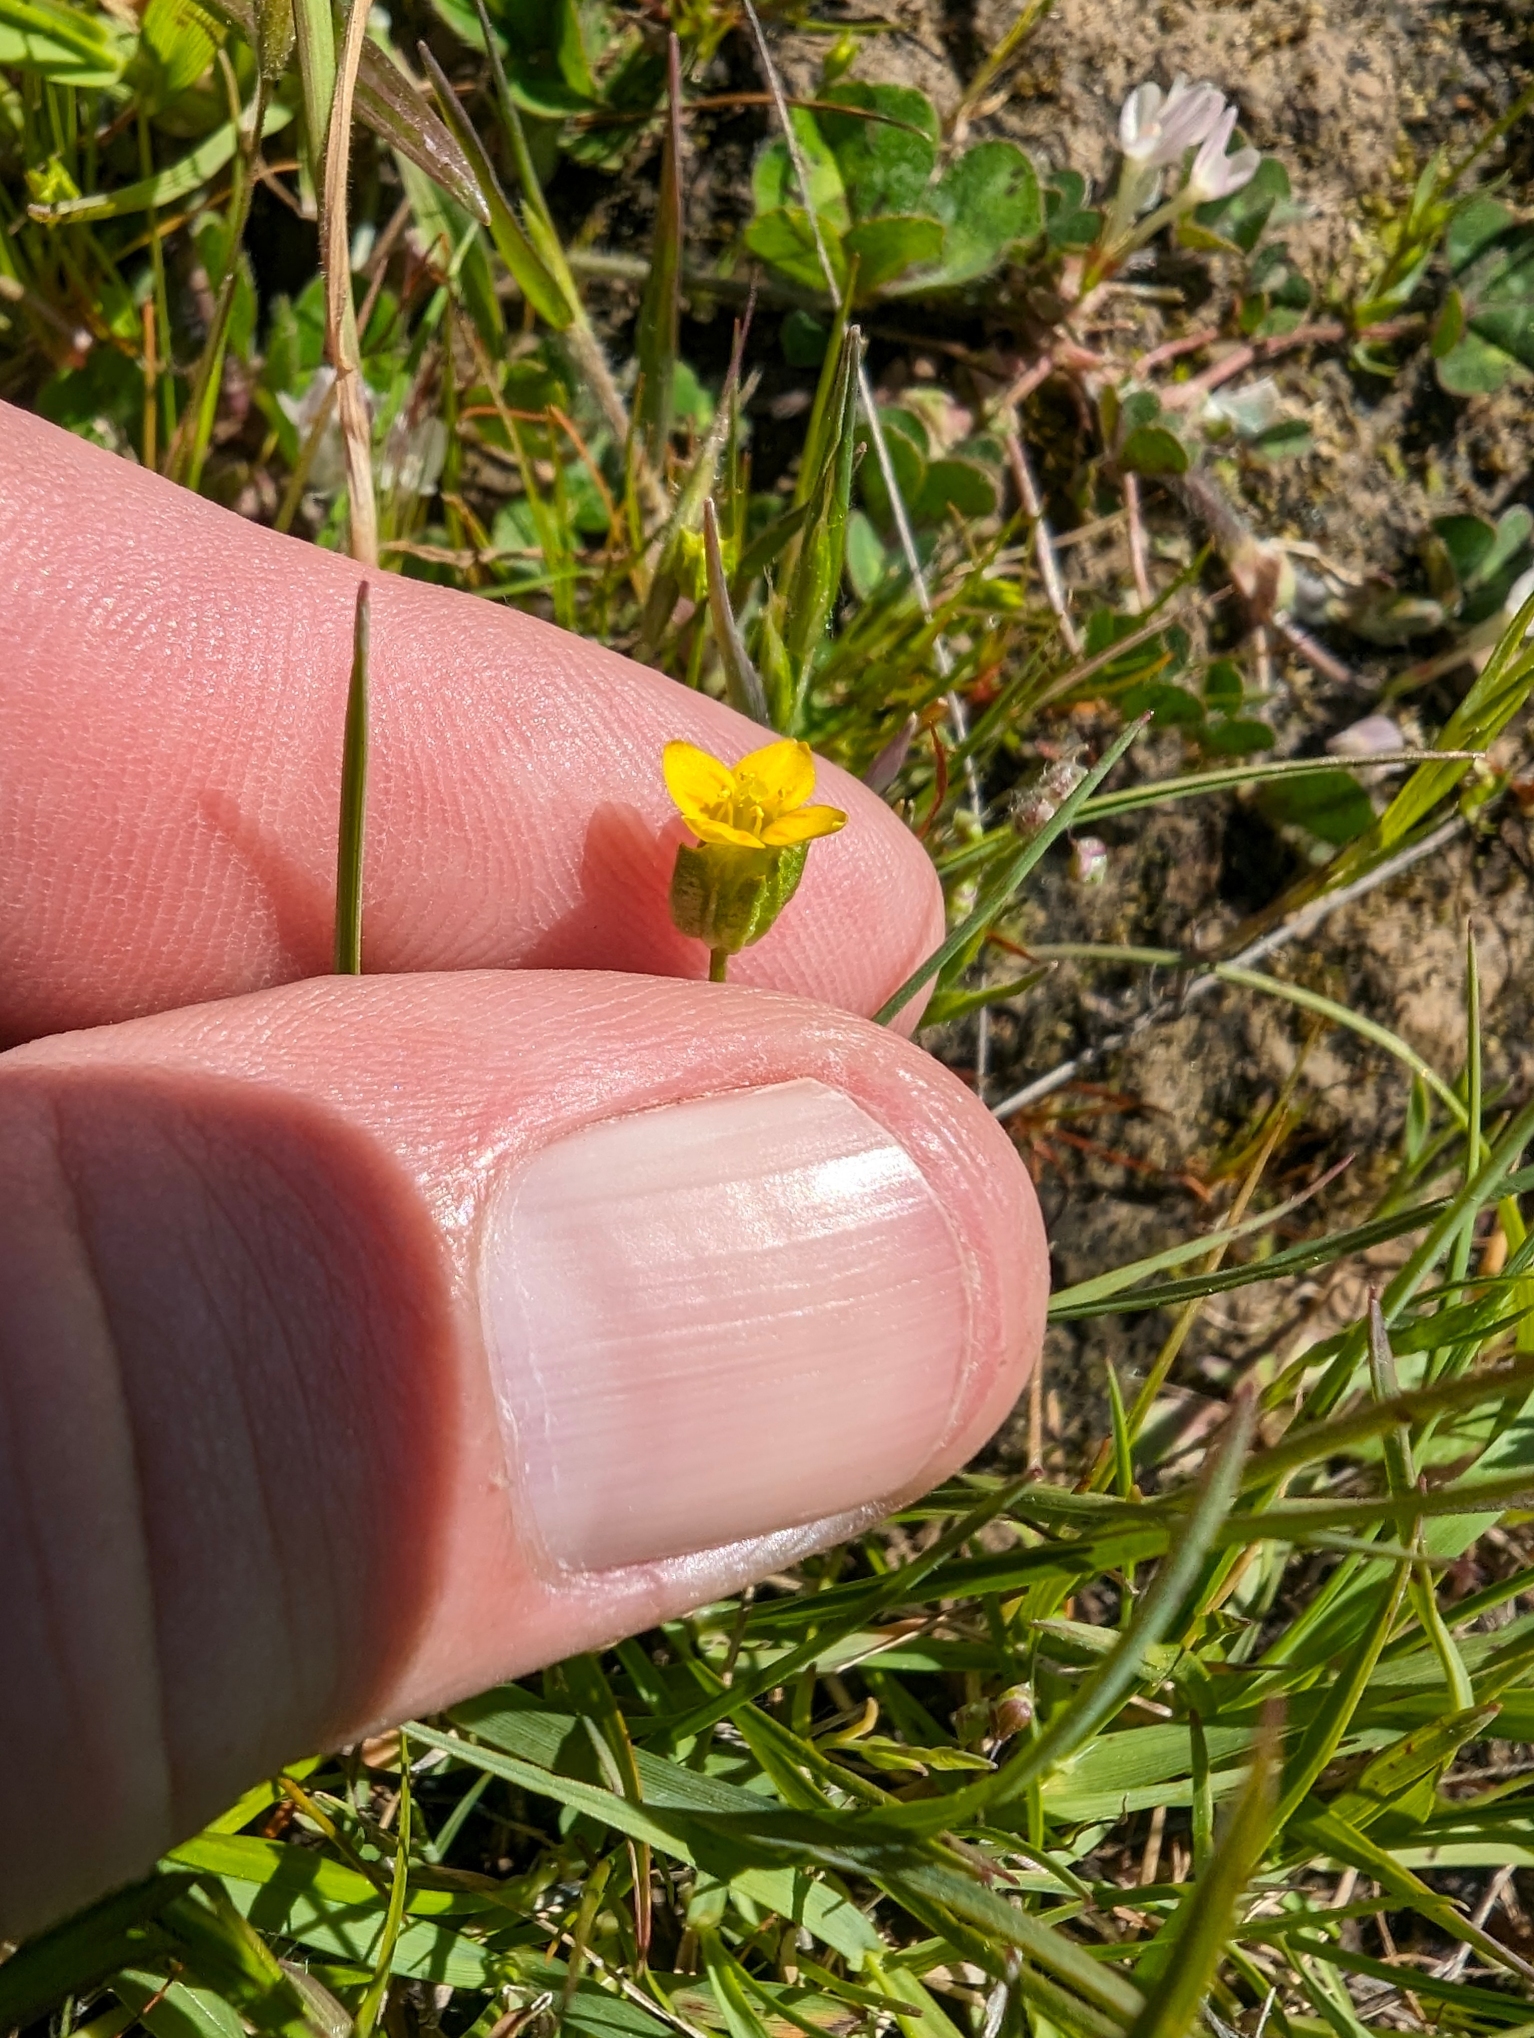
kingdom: Plantae
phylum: Tracheophyta
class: Magnoliopsida
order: Gentianales
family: Gentianaceae
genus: Microcala
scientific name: Microcala quadrangularis
